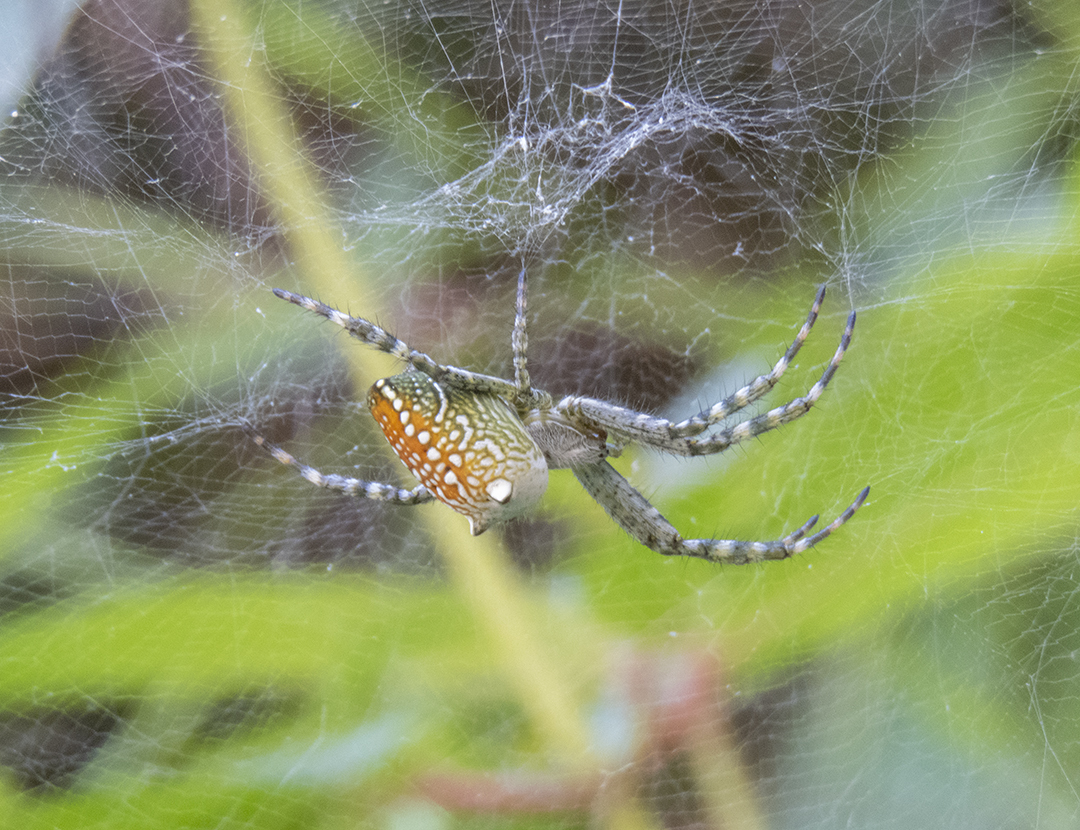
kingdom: Chromista
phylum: Ochrophyta
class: Dictyochophyceae
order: Pedinellales
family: Cyrtophoraceae
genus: Cyrtophora
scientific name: Cyrtophora moluccensis
